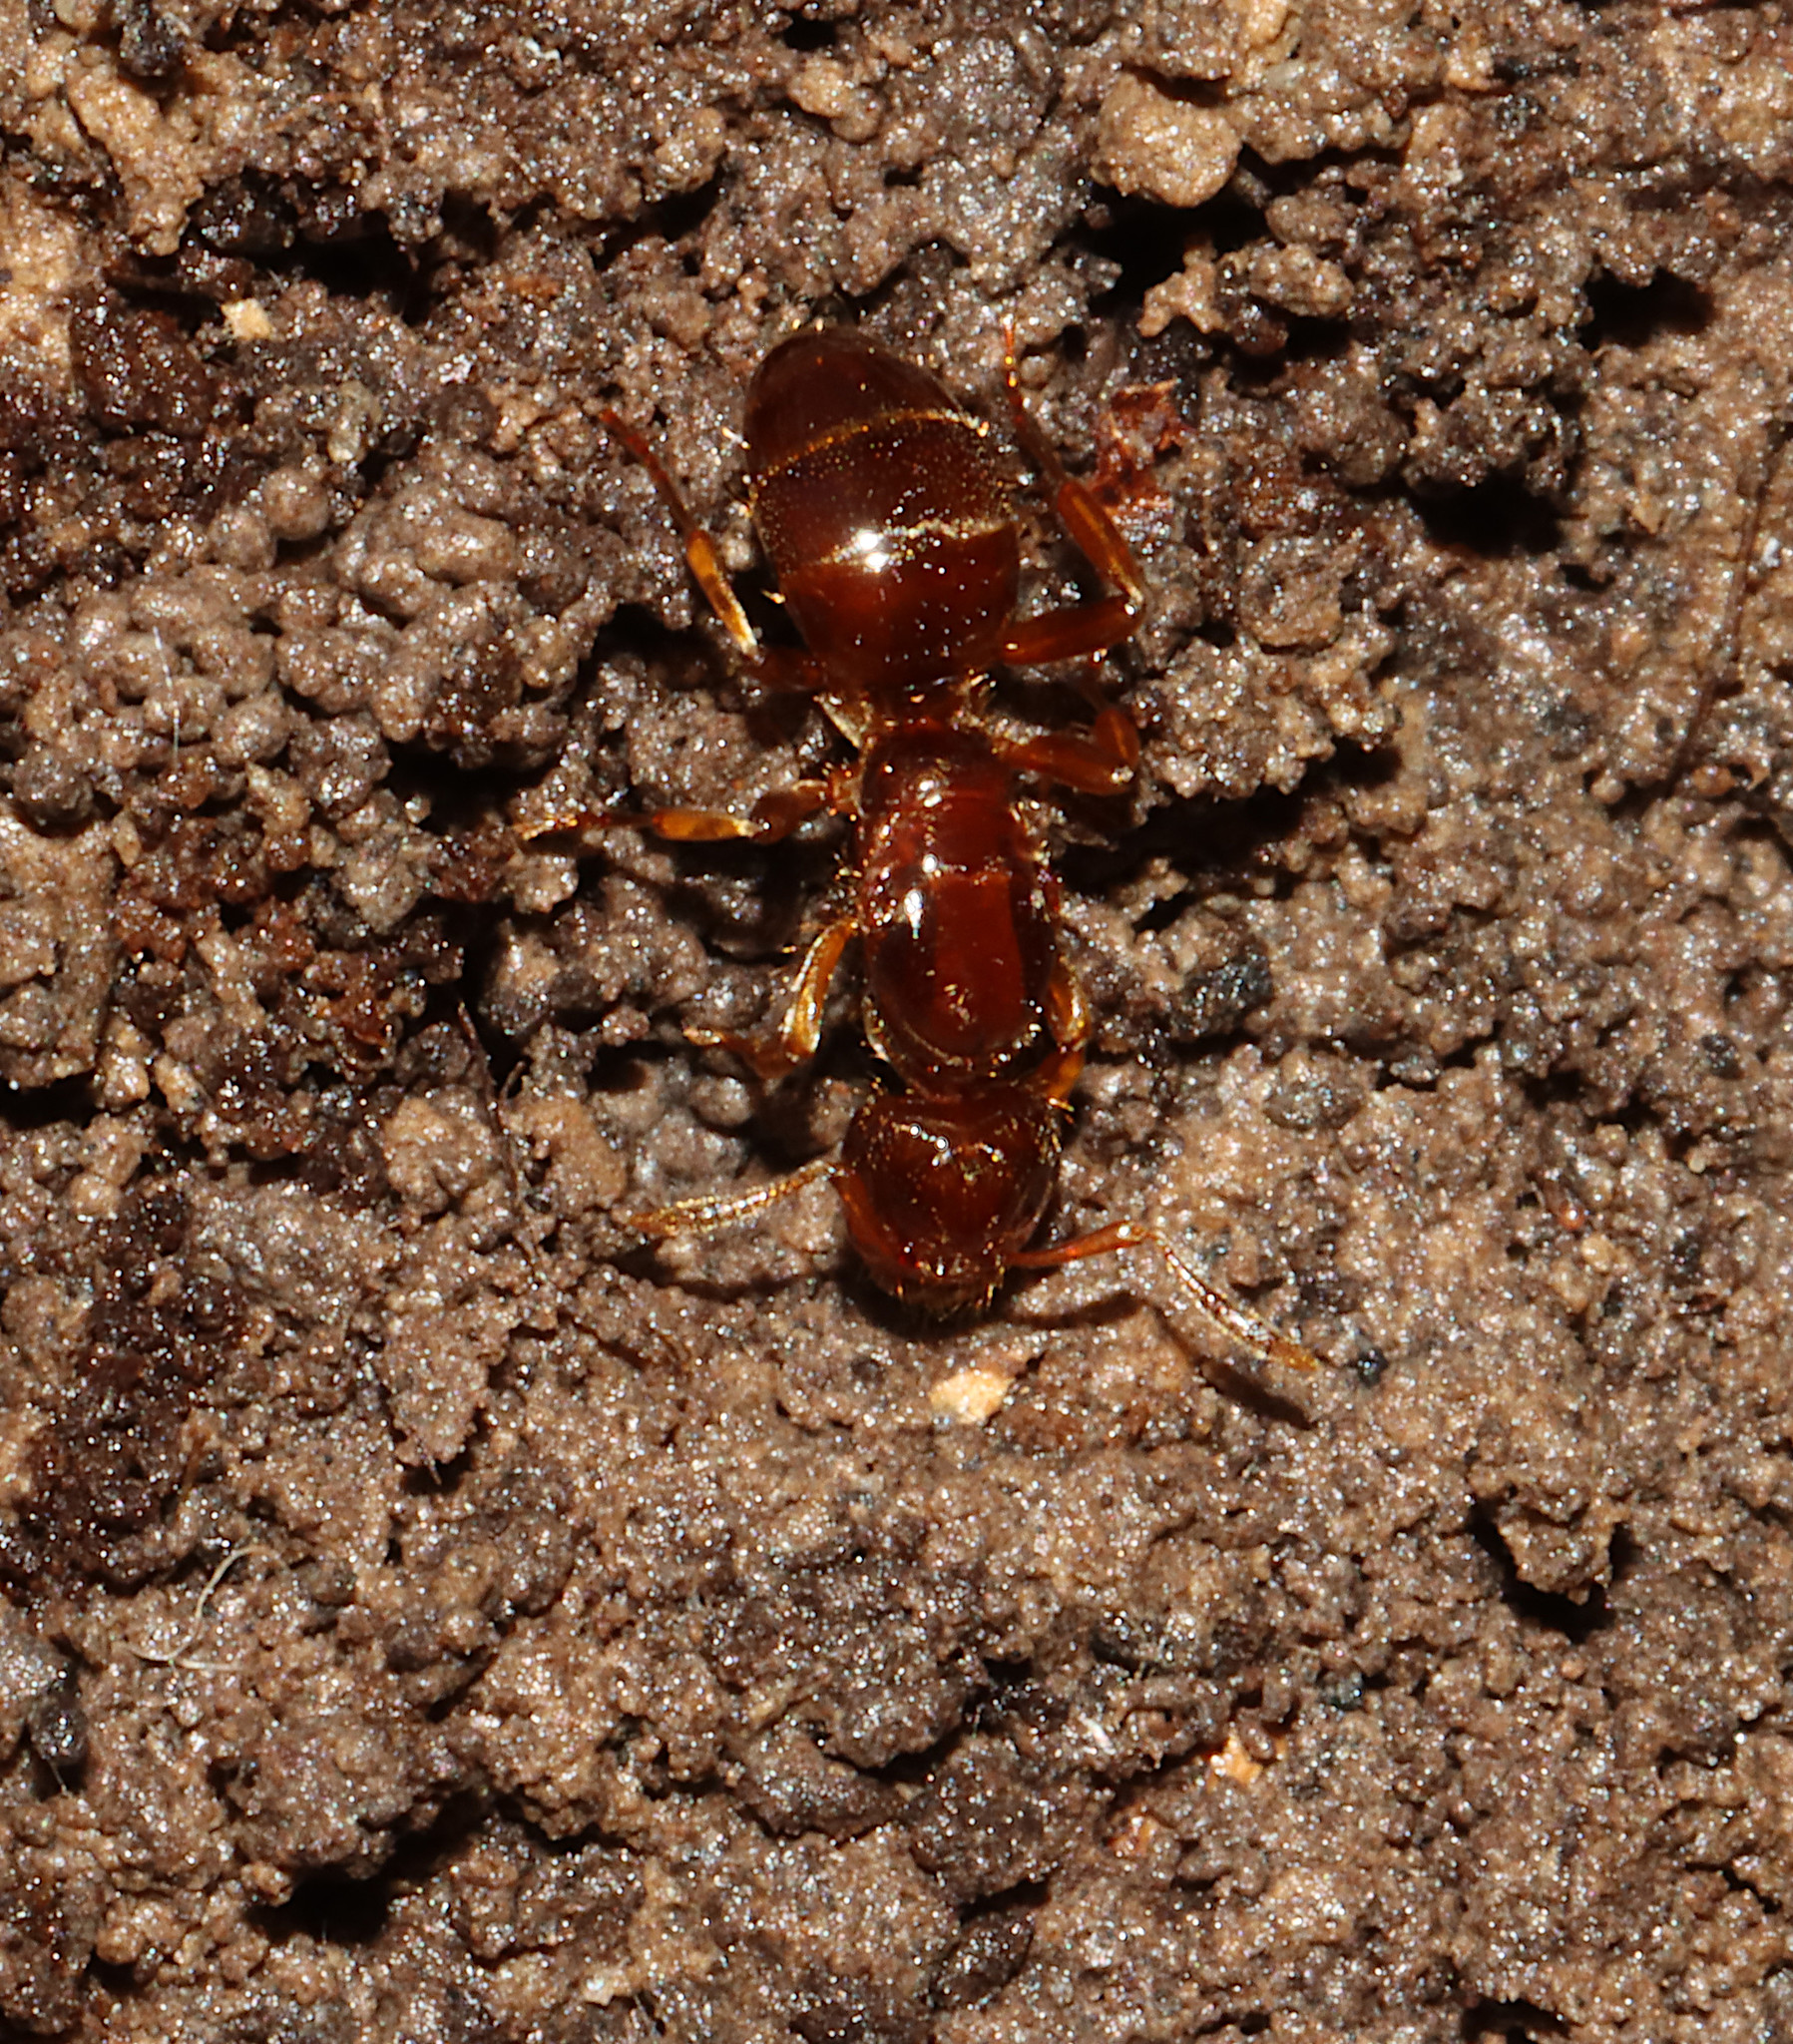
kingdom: Animalia
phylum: Arthropoda
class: Insecta
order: Hymenoptera
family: Formicidae
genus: Lasius
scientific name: Lasius claviger
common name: Common citronella ant
